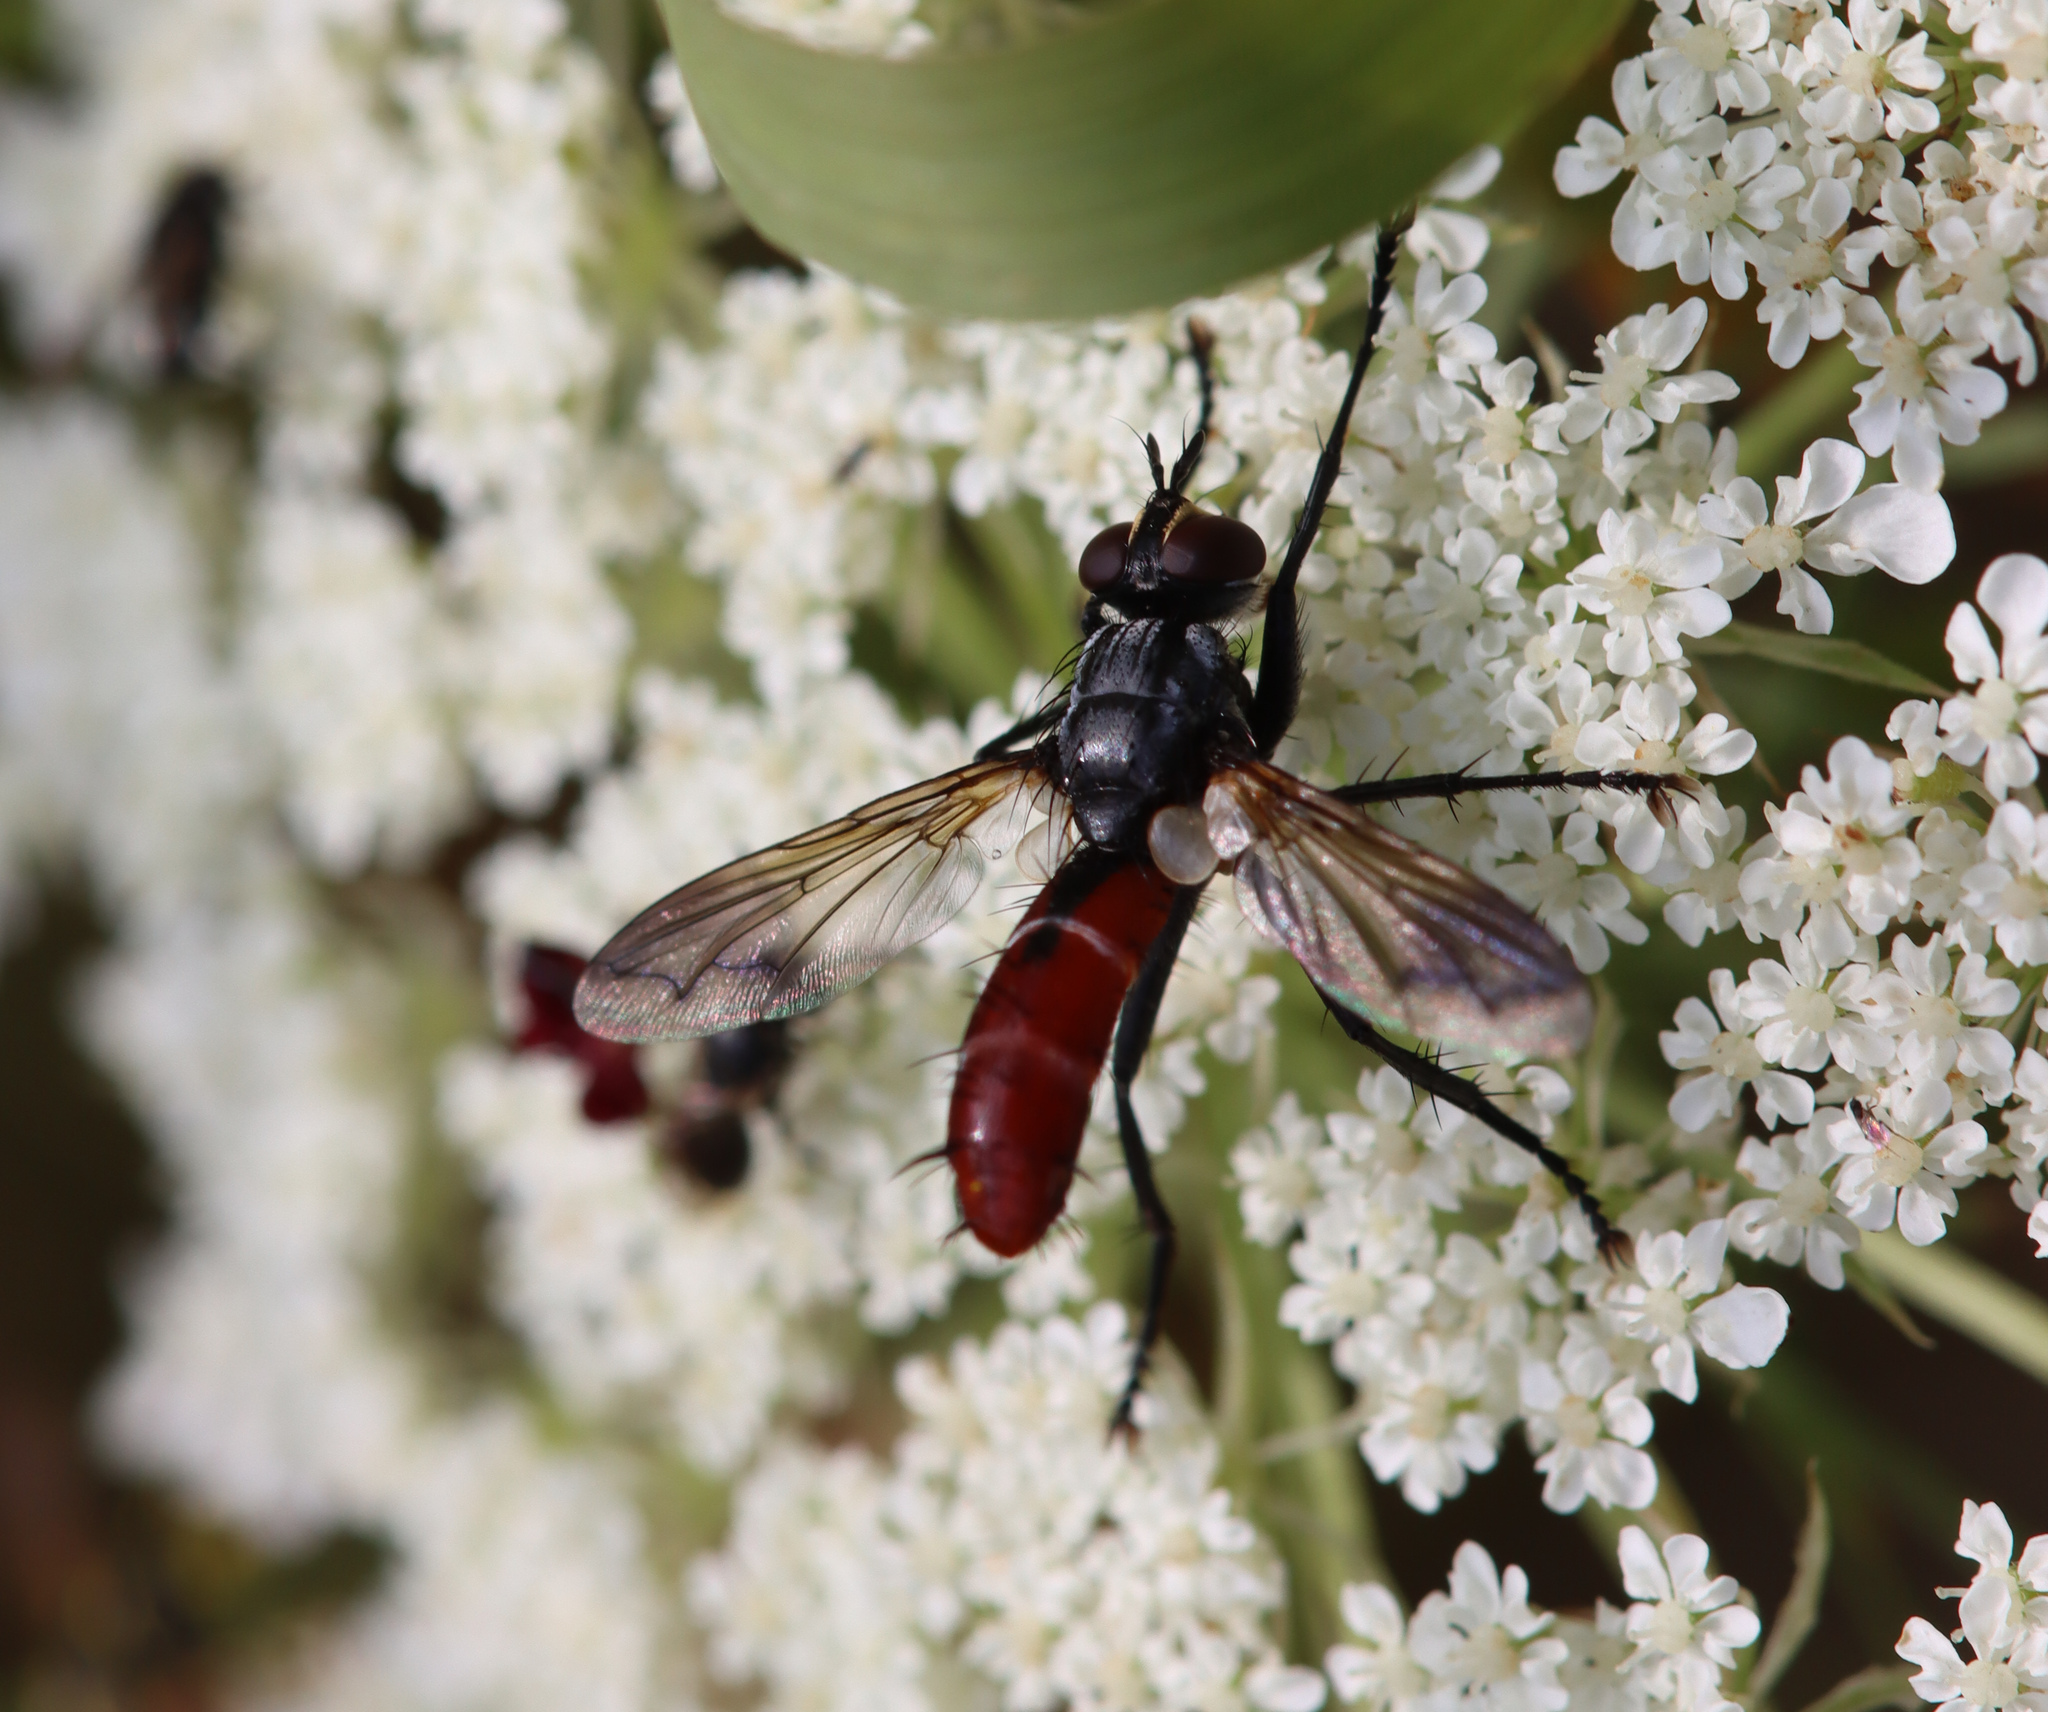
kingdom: Animalia
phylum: Arthropoda
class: Insecta
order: Diptera
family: Tachinidae
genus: Cylindromyia
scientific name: Cylindromyia bicolor
